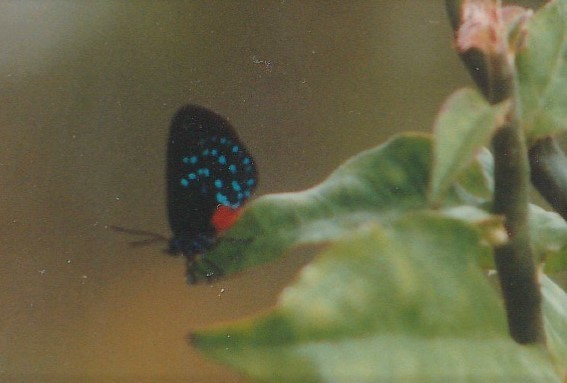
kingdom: Animalia
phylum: Arthropoda
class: Insecta
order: Lepidoptera
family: Lycaenidae
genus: Eumaeus
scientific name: Eumaeus atala
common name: Atala
